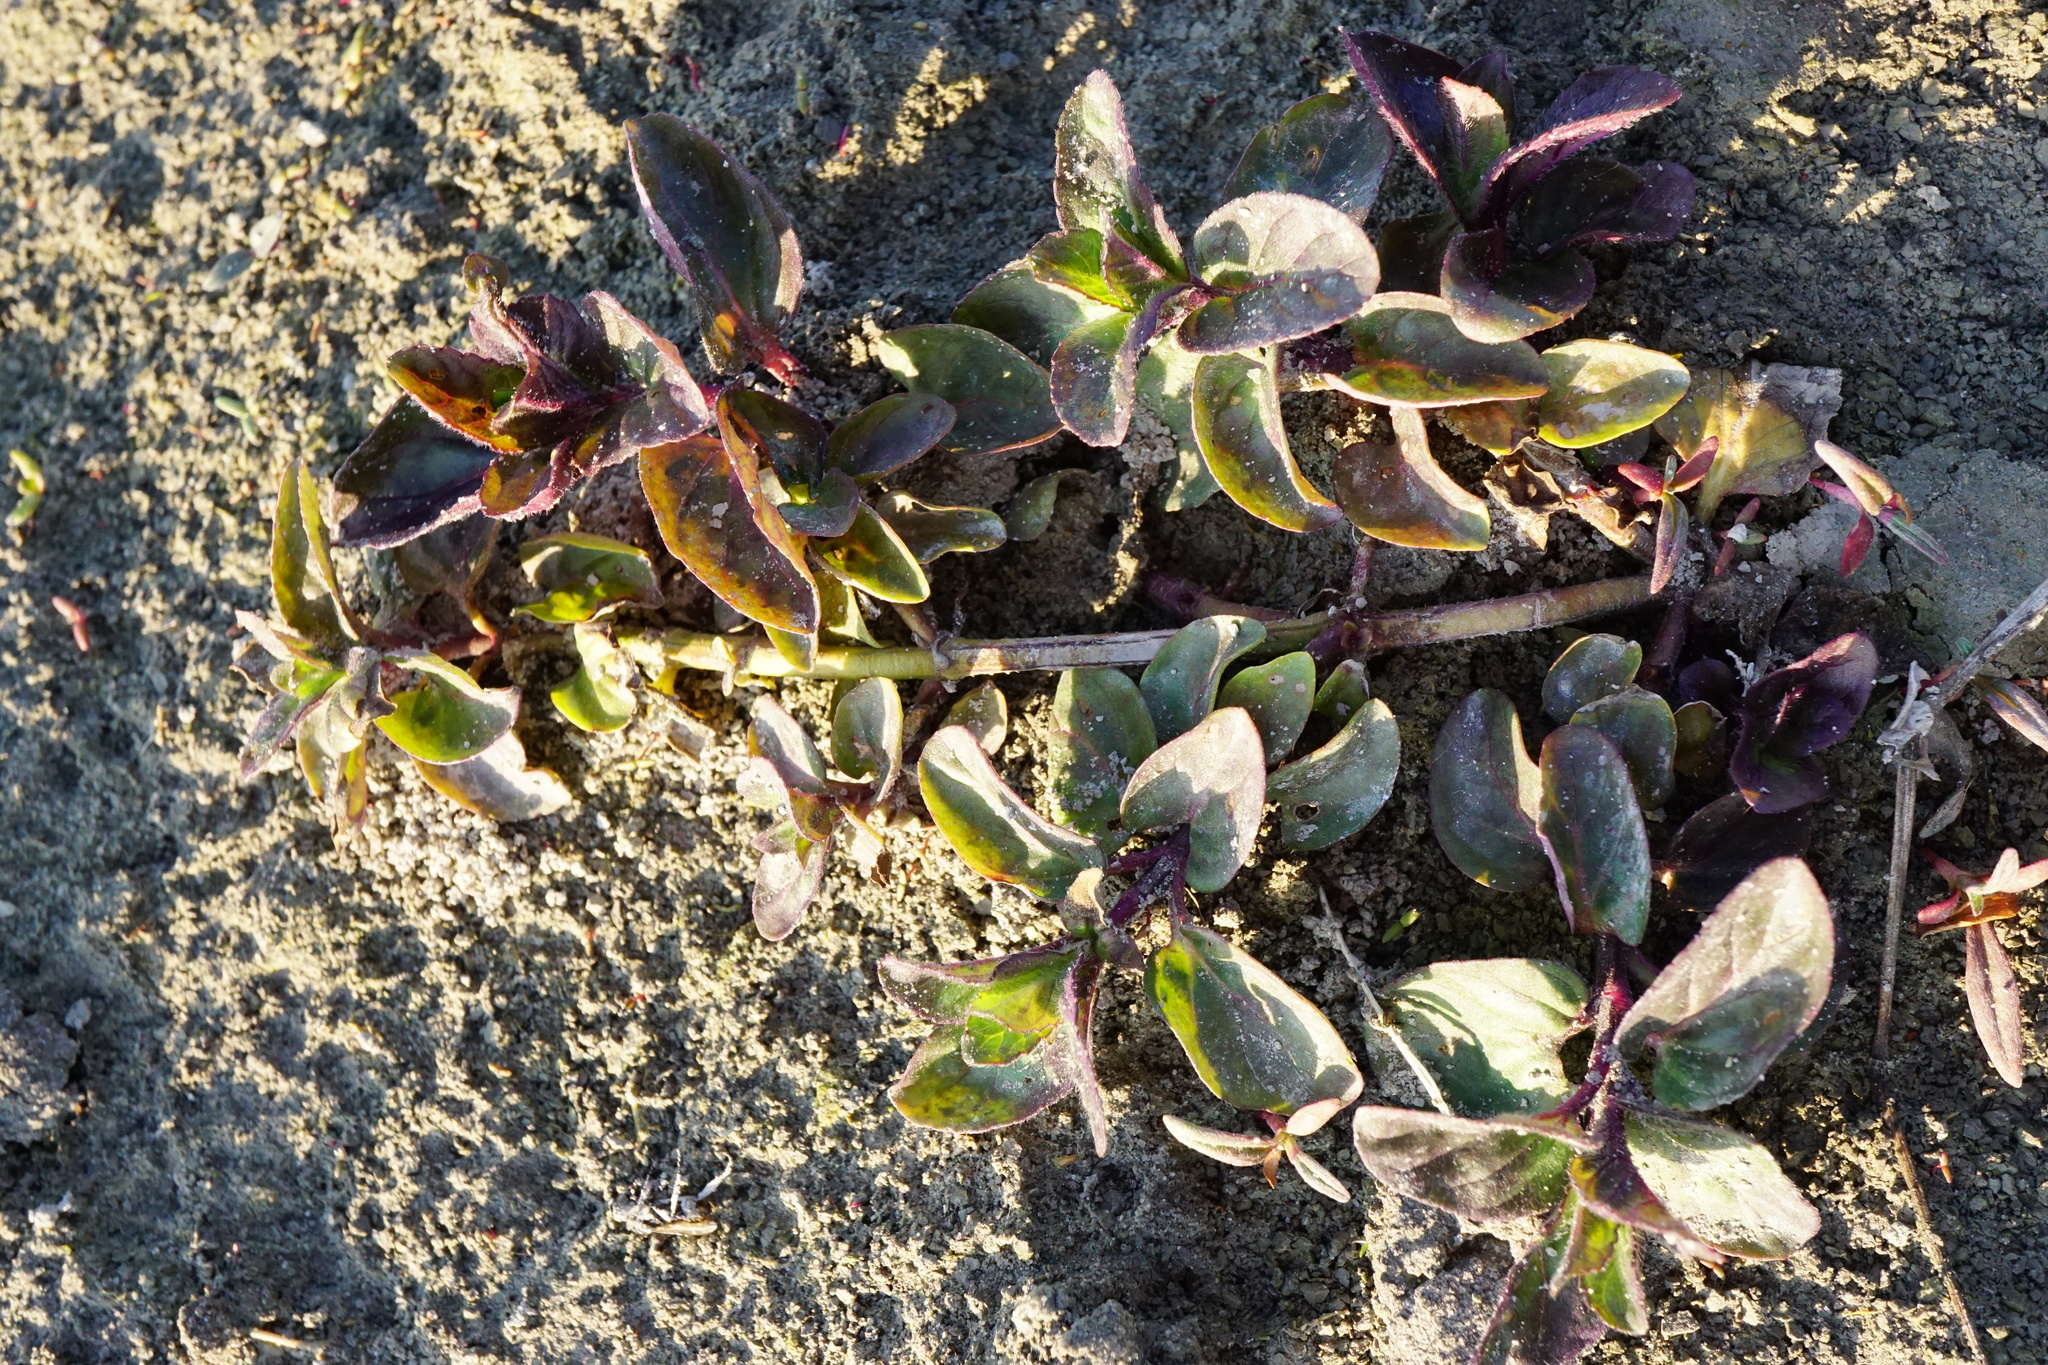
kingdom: Plantae
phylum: Tracheophyta
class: Magnoliopsida
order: Lamiales
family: Lamiaceae
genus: Mentha
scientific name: Mentha aquatica
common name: Water mint
